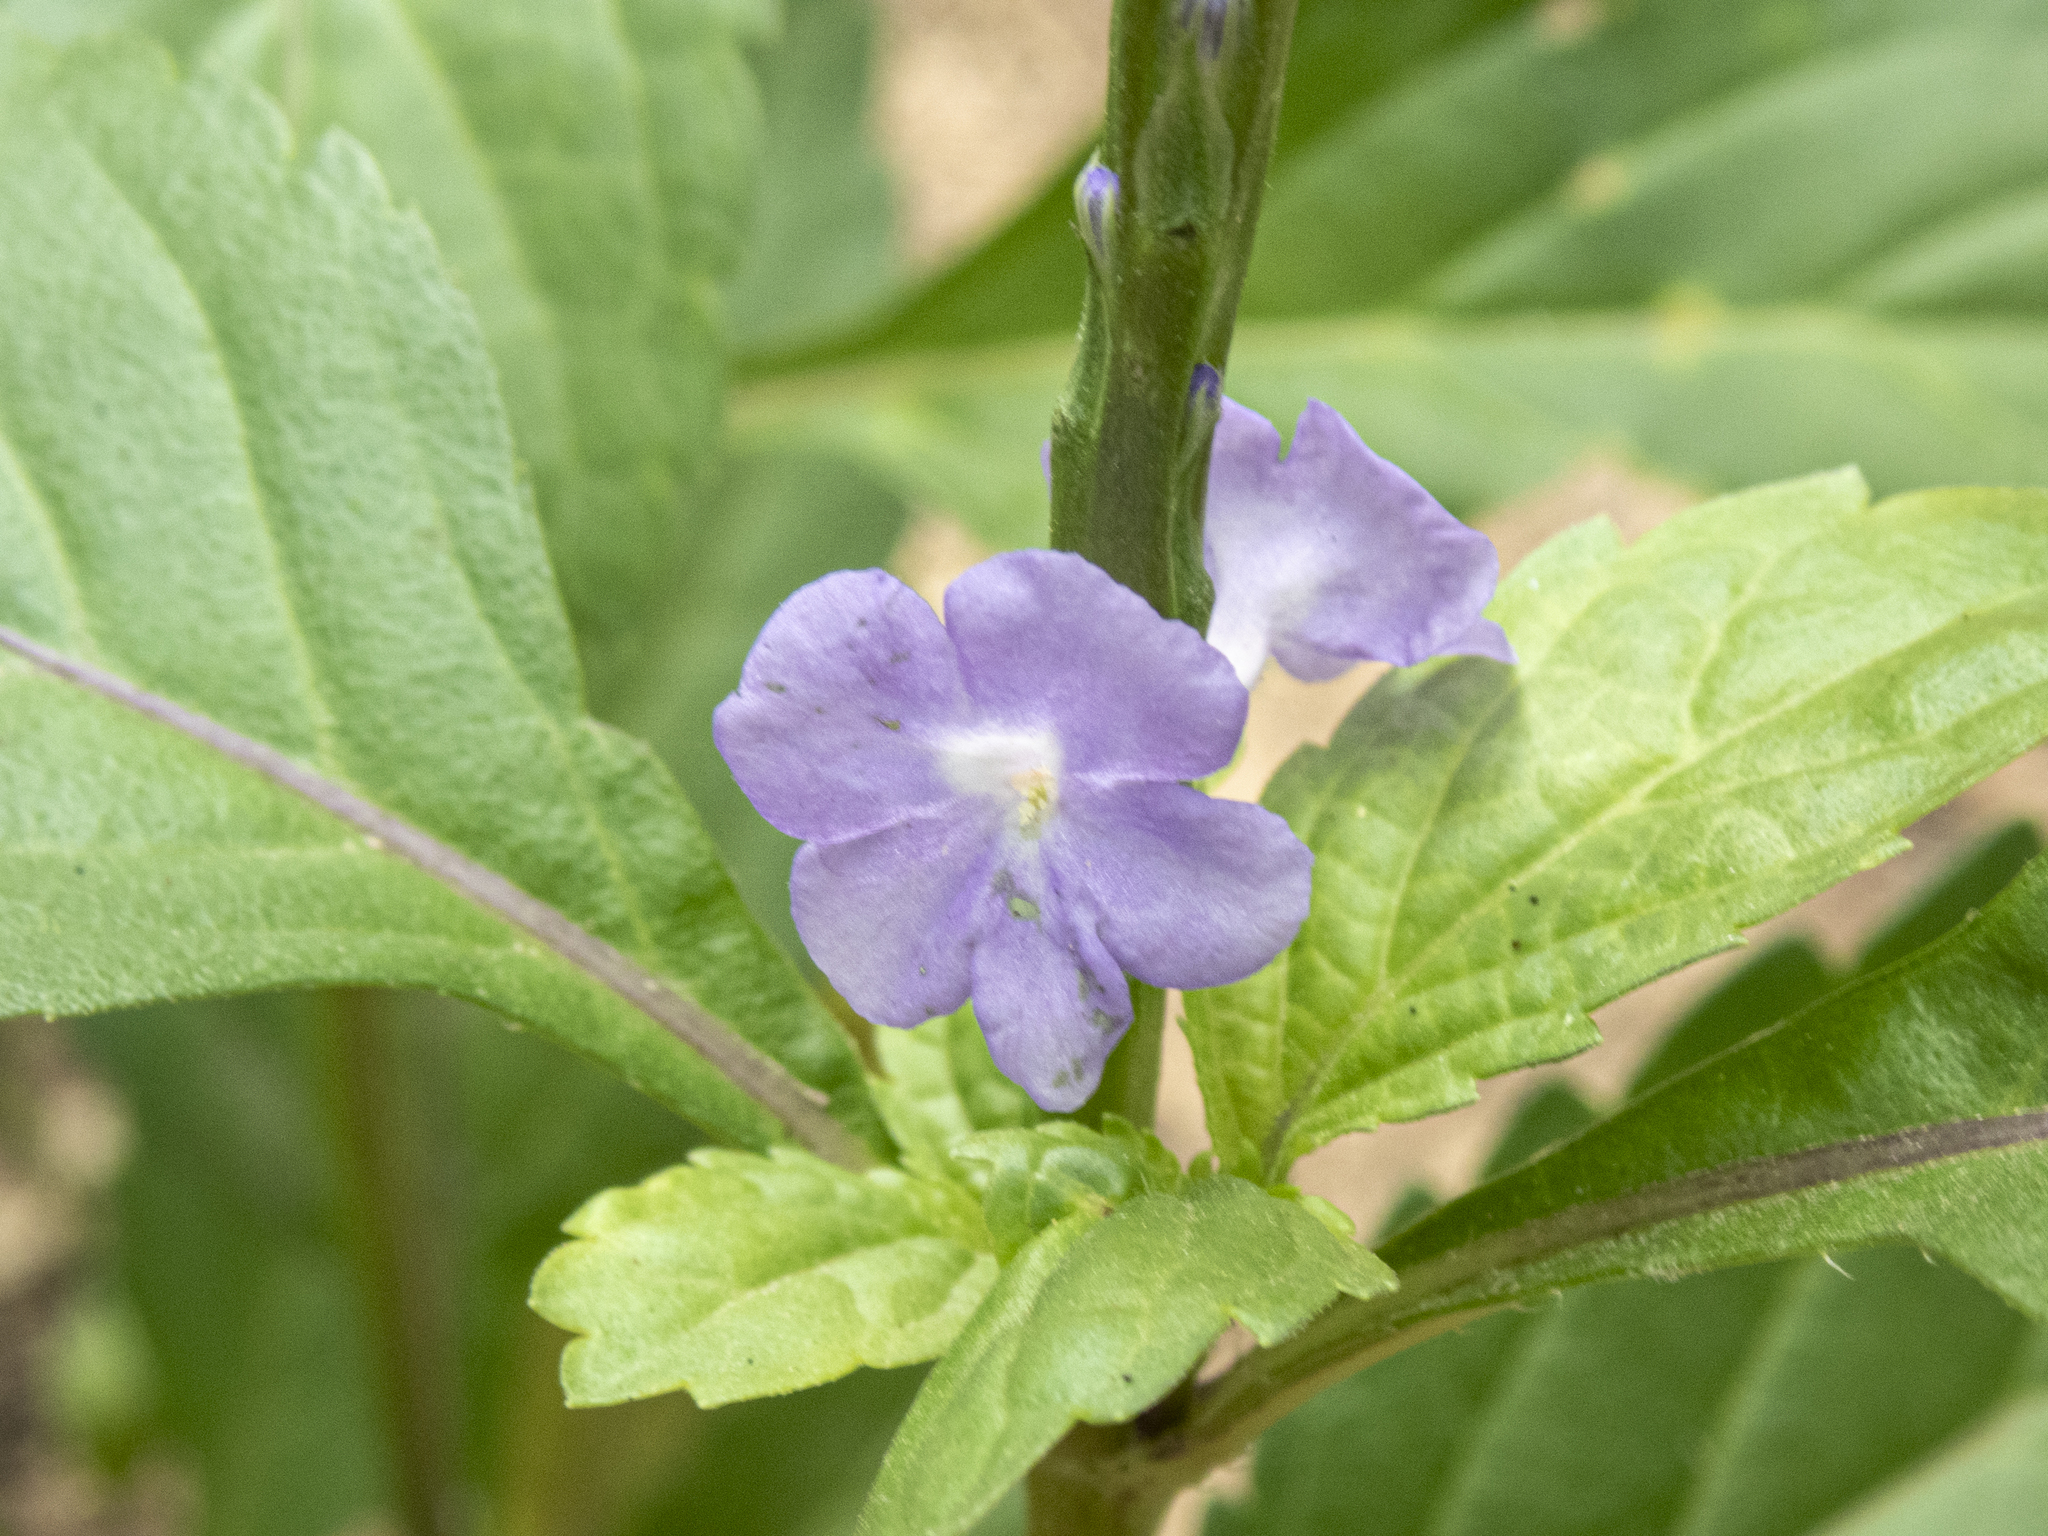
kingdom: Plantae
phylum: Tracheophyta
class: Magnoliopsida
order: Lamiales
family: Verbenaceae
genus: Stachytarpheta
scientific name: Stachytarpheta jamaicensis
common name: Light-blue snakeweed
